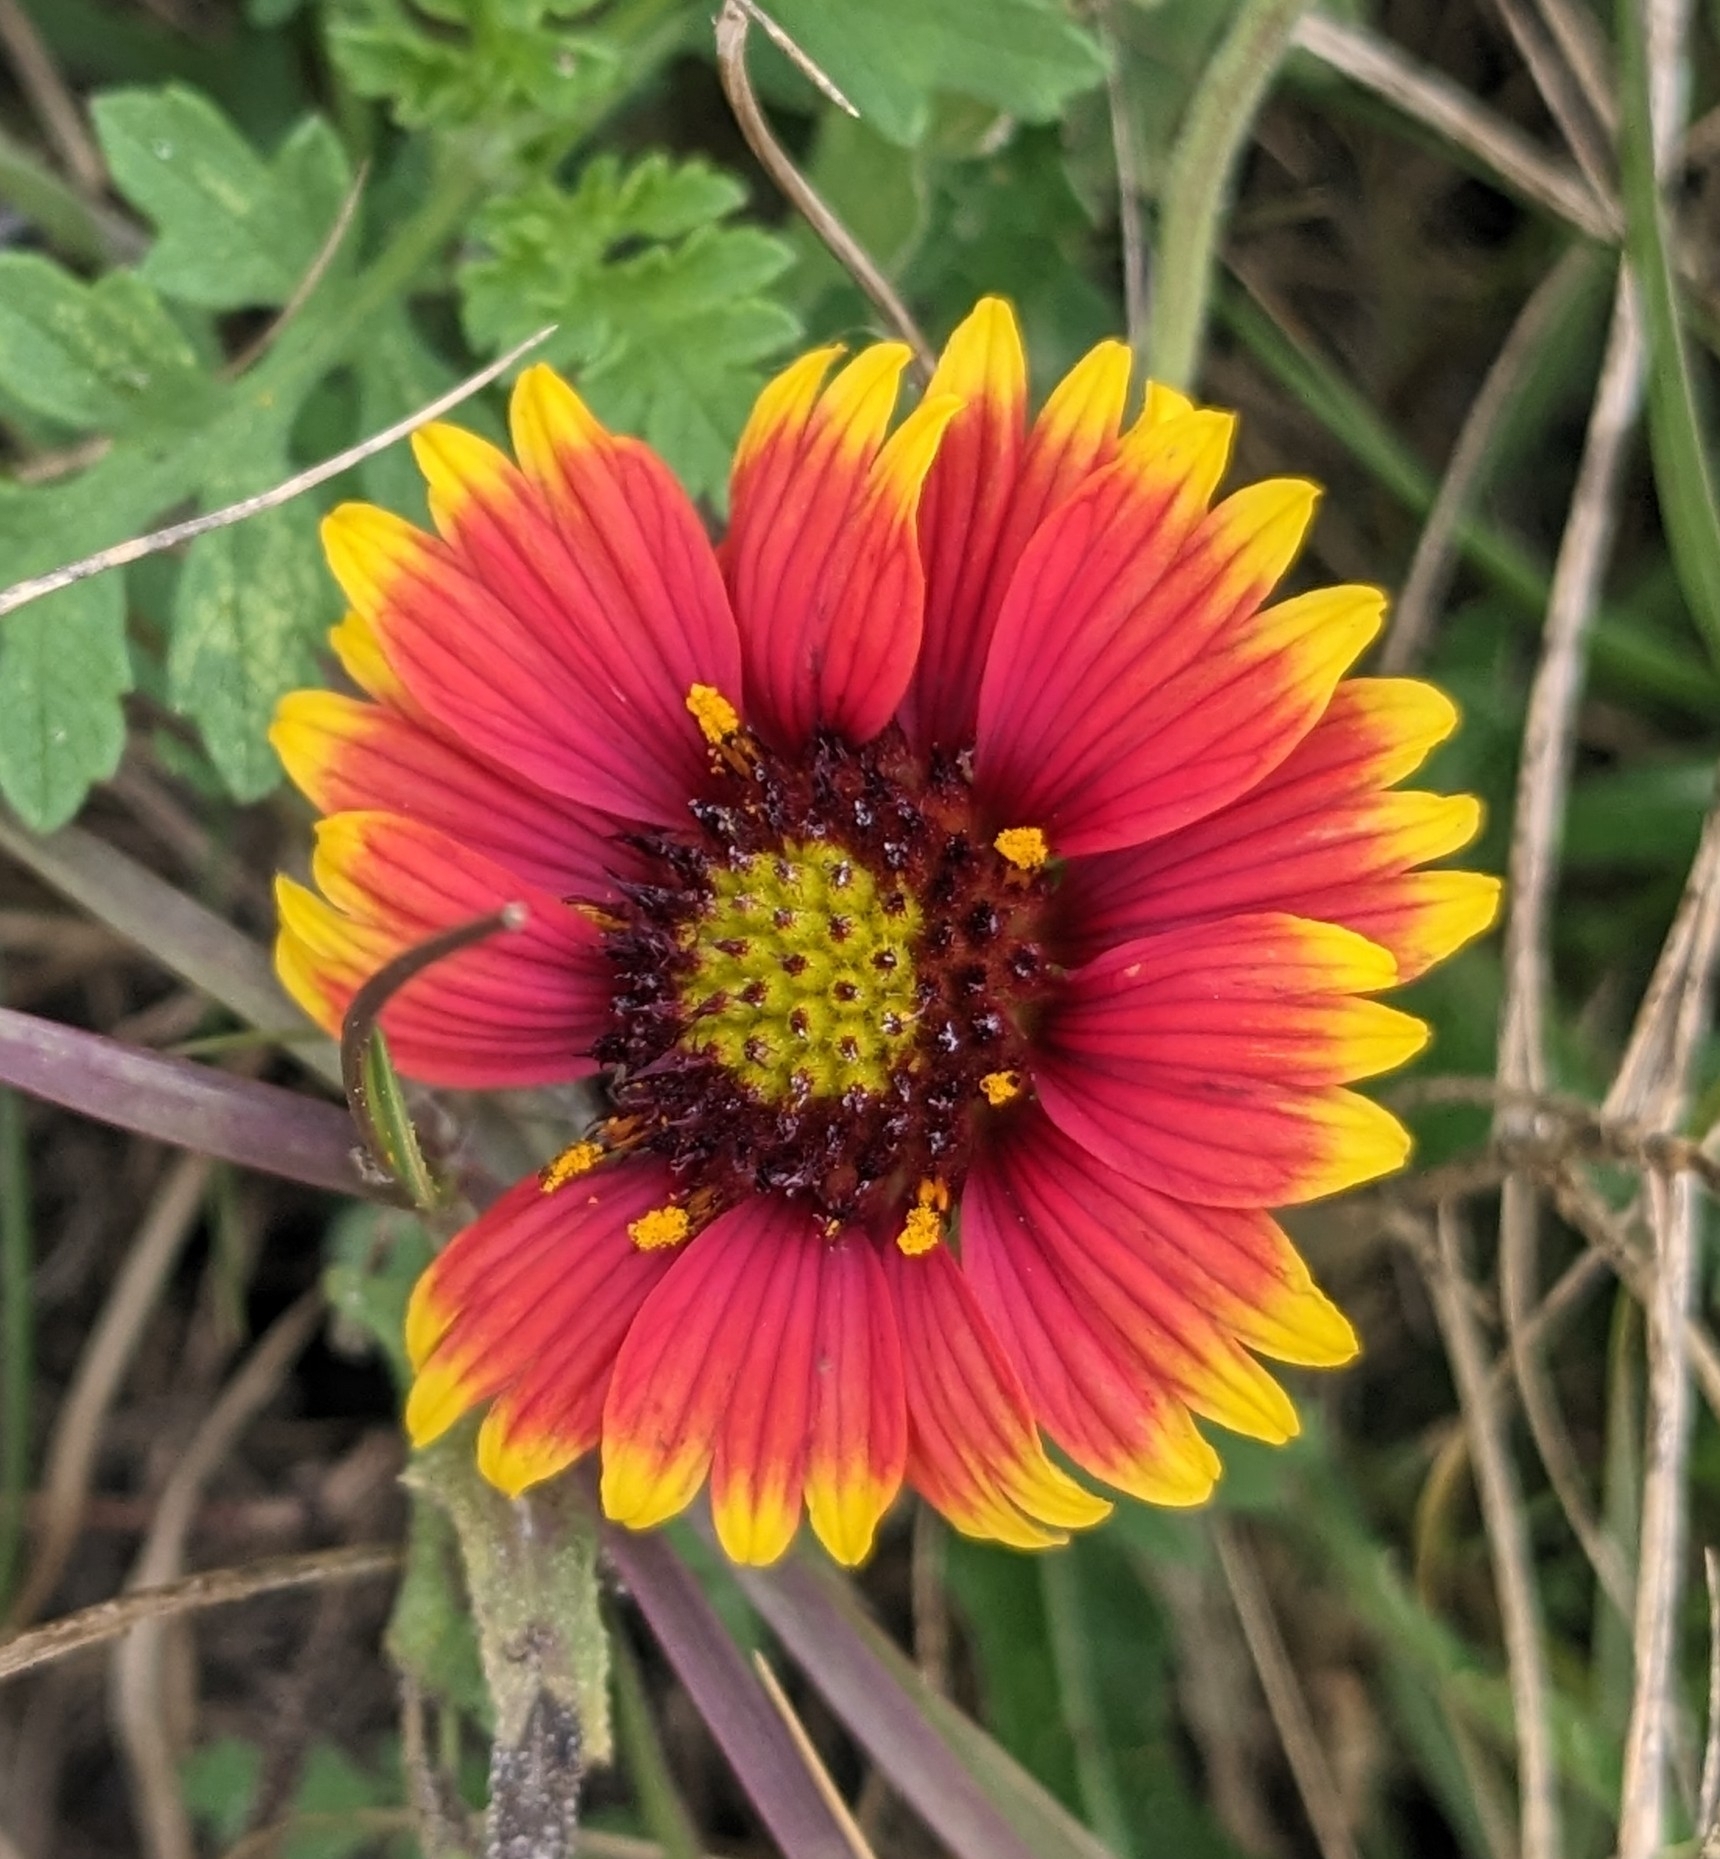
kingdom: Plantae
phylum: Tracheophyta
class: Magnoliopsida
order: Asterales
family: Asteraceae
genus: Gaillardia
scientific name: Gaillardia pulchella
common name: Firewheel
